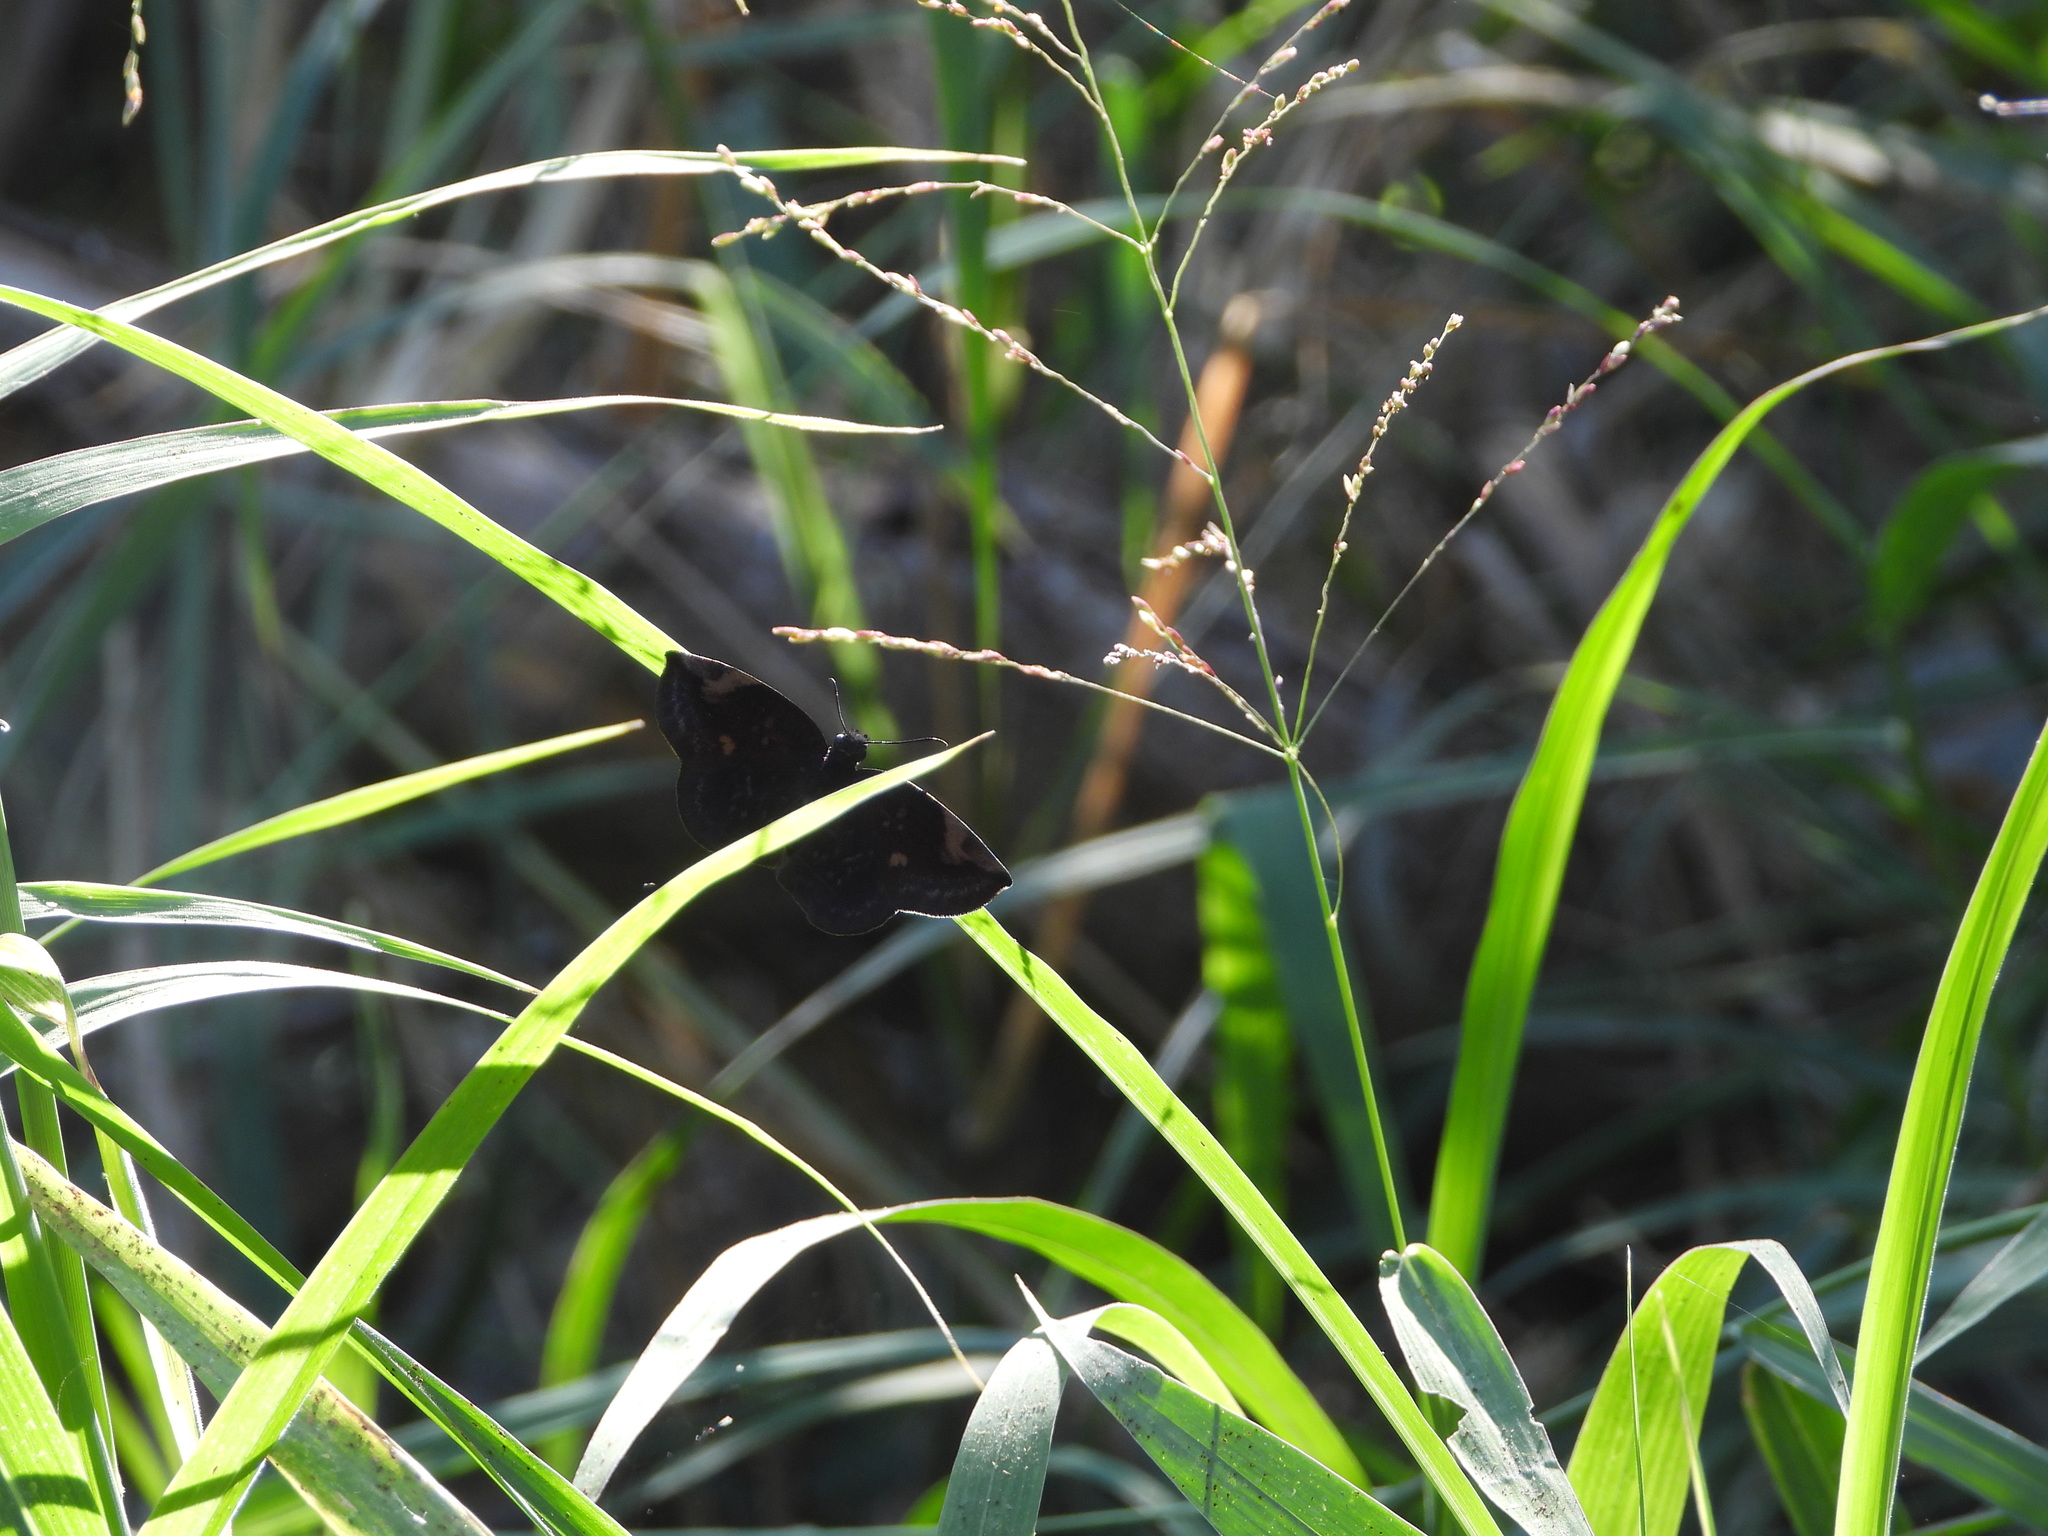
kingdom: Animalia
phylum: Arthropoda
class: Insecta
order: Lepidoptera
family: Hesperiidae
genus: Achlyodes
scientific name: Achlyodes thraso
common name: Sickle-winged skipper
